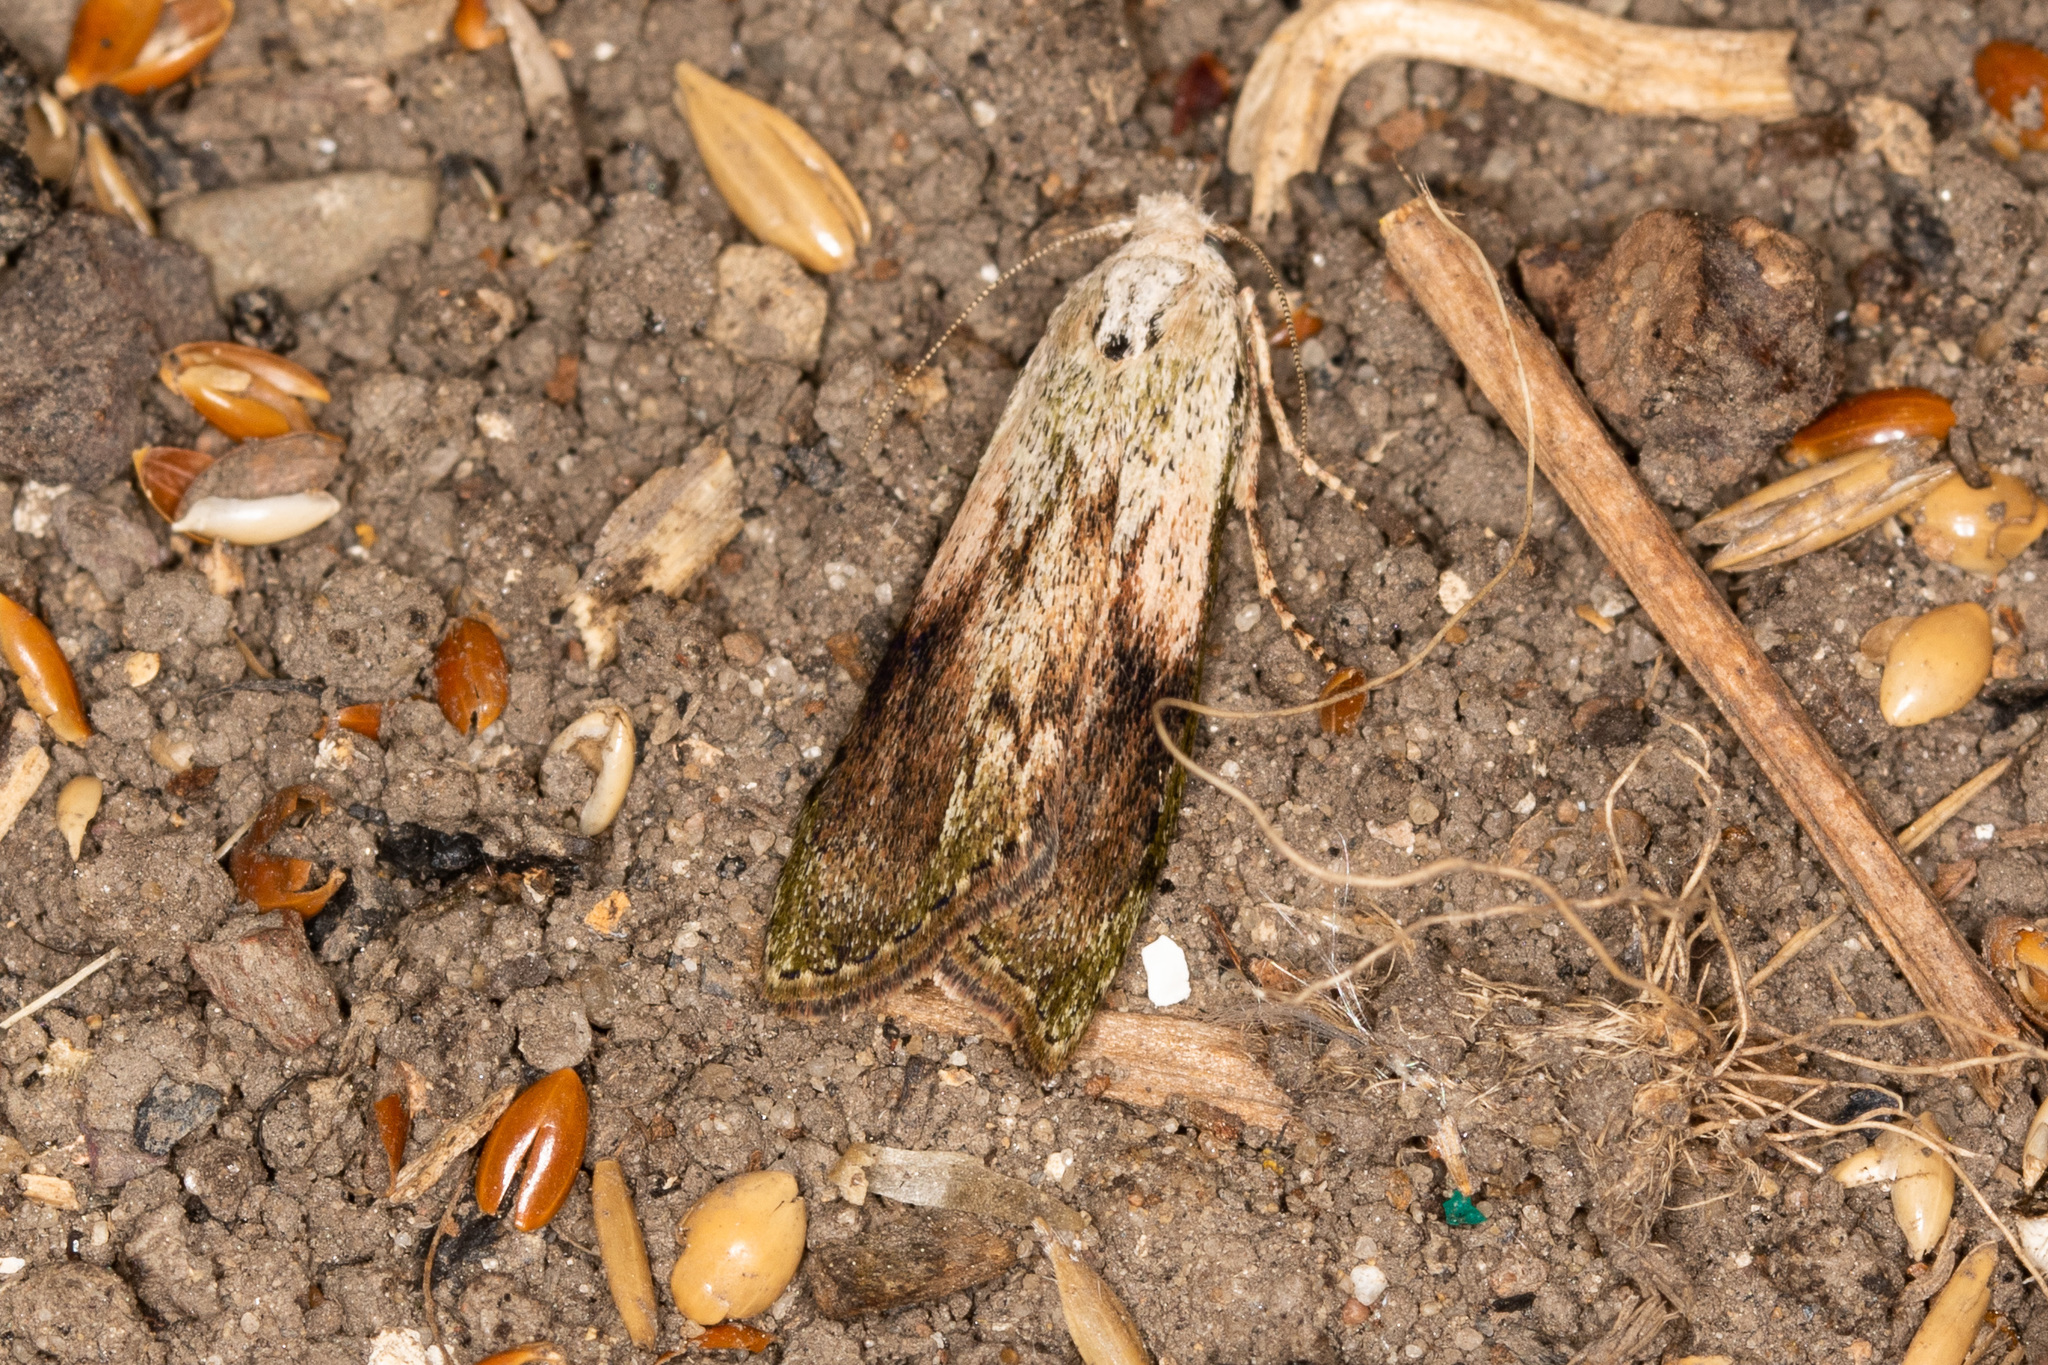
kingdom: Animalia
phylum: Arthropoda
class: Insecta
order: Lepidoptera
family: Pyralidae
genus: Aphomia
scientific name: Aphomia sociella
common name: Bee moth
